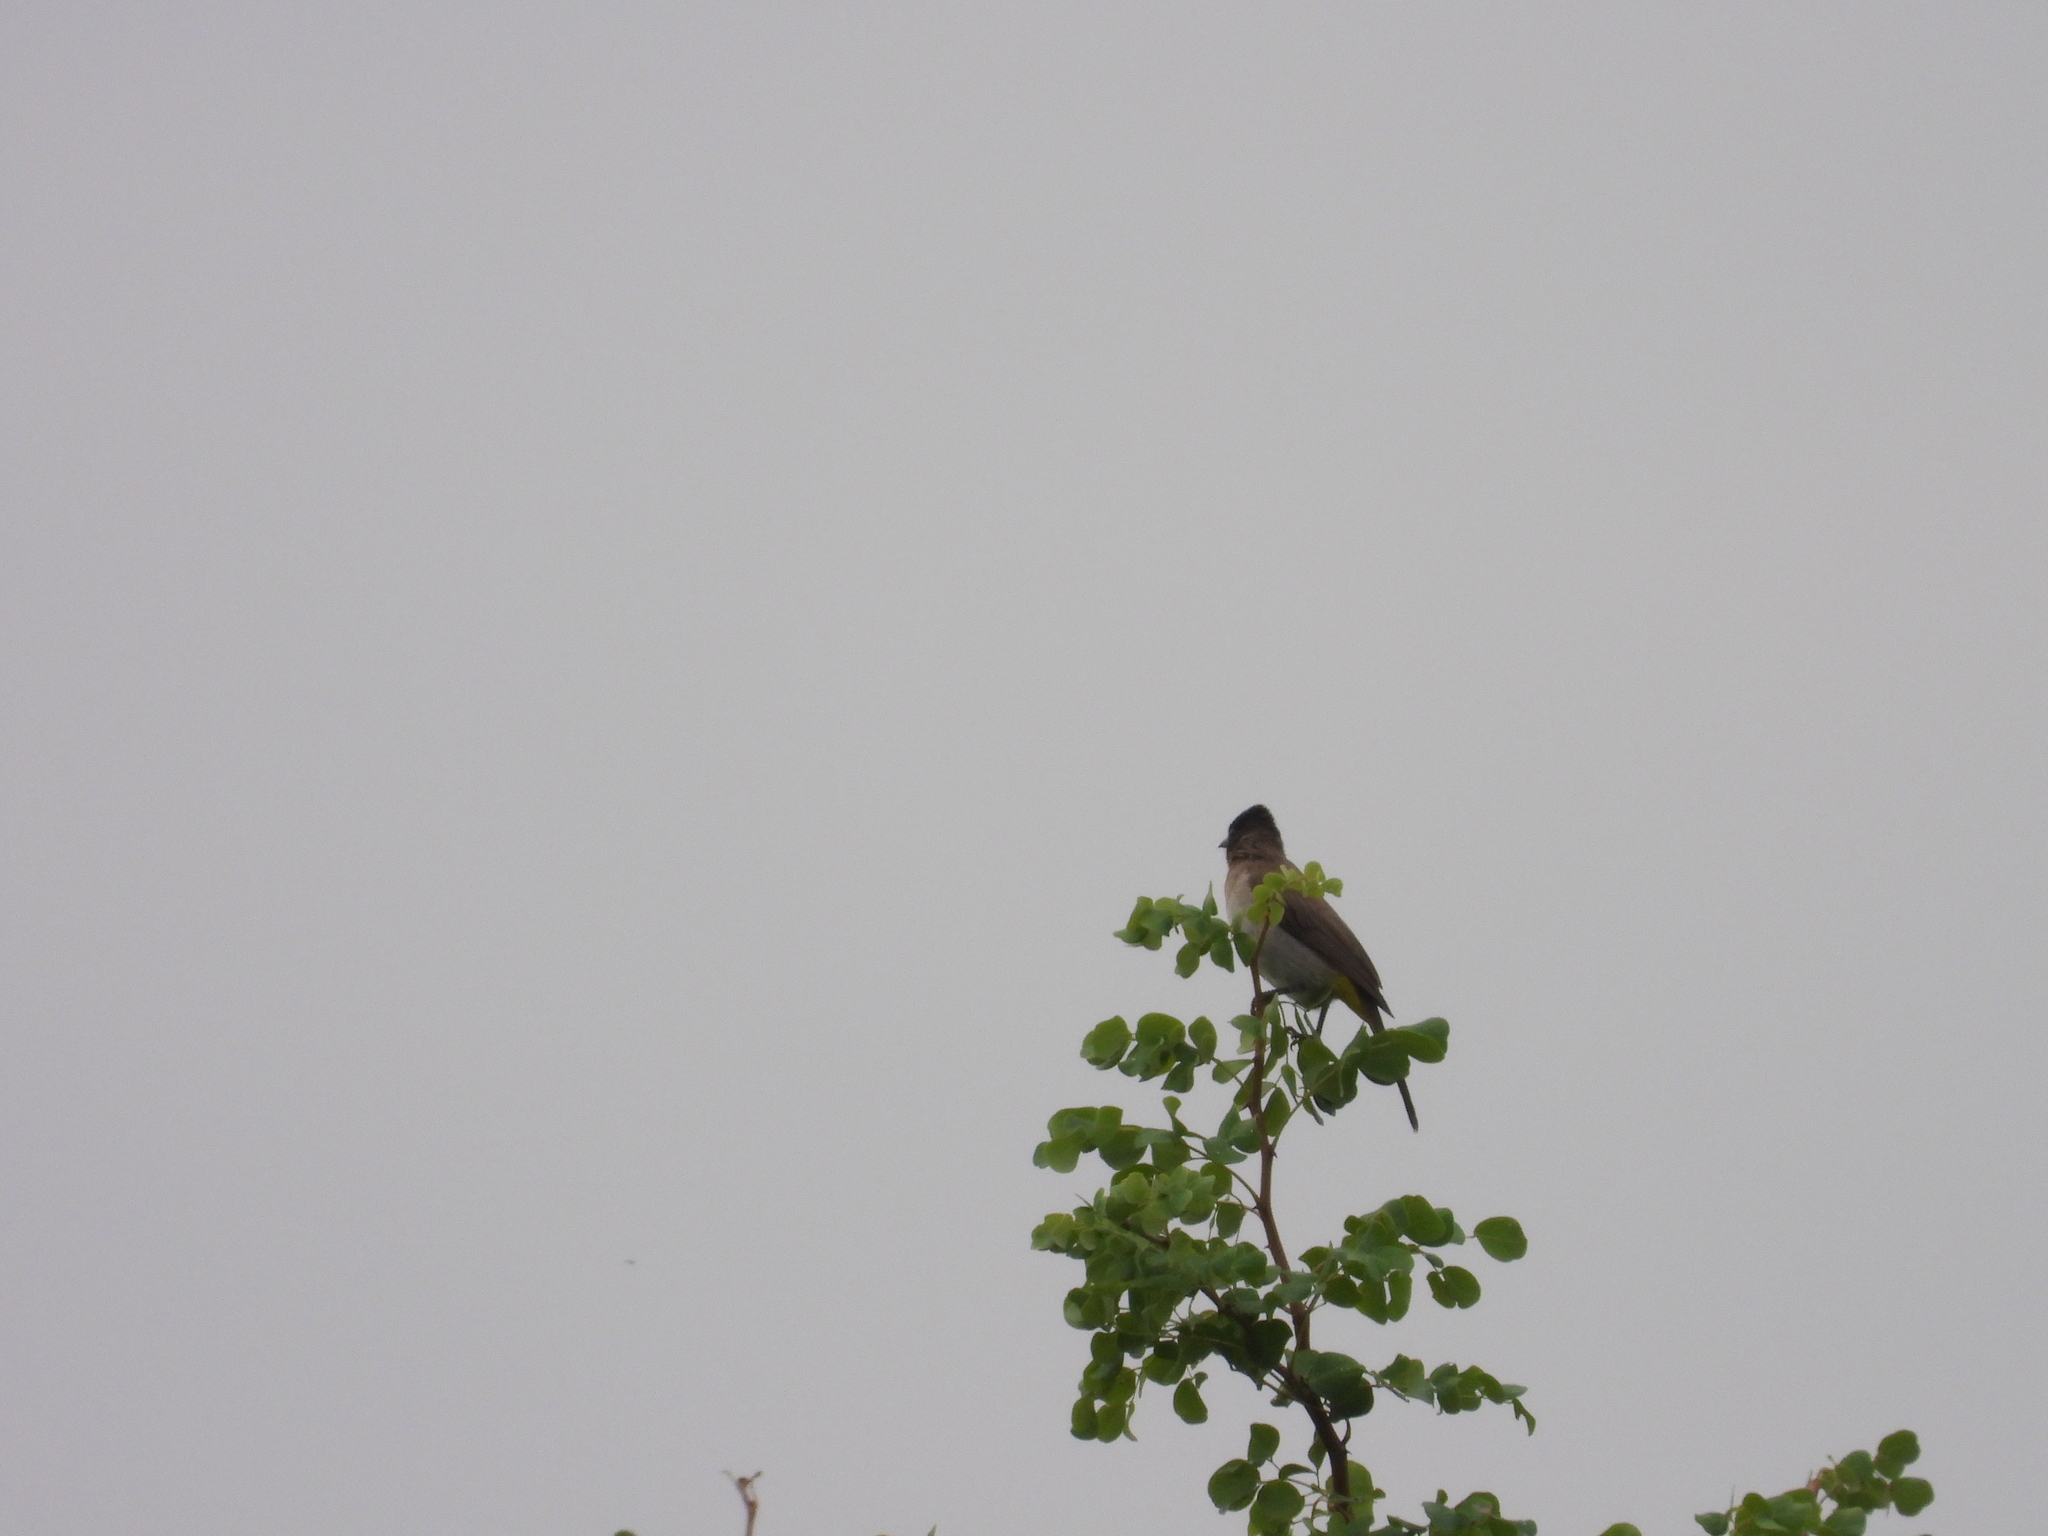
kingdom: Animalia
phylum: Chordata
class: Aves
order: Passeriformes
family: Pycnonotidae
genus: Pycnonotus
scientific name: Pycnonotus barbatus
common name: Common bulbul
